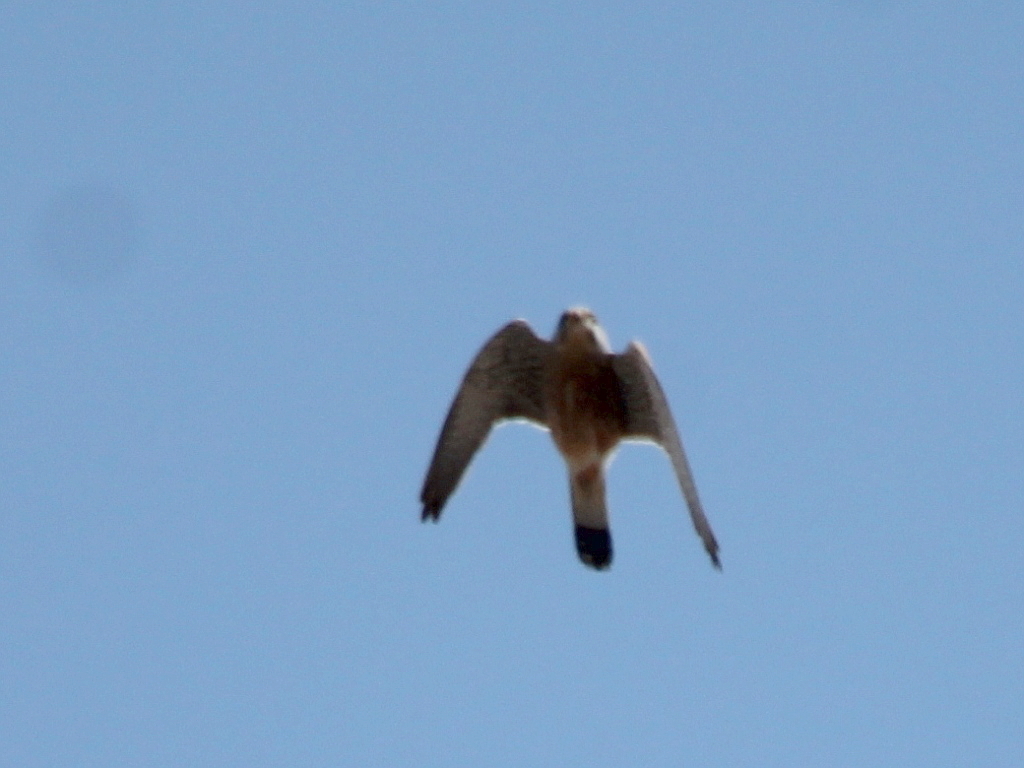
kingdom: Animalia
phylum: Chordata
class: Aves
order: Falconiformes
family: Falconidae
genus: Falco
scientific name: Falco tinnunculus
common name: Common kestrel
